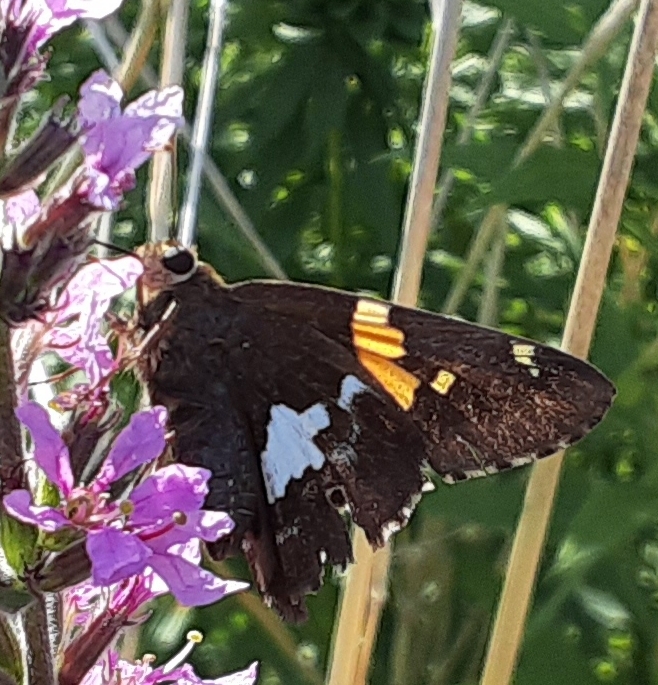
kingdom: Animalia
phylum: Arthropoda
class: Insecta
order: Lepidoptera
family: Hesperiidae
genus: Epargyreus
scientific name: Epargyreus clarus
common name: Silver-spotted skipper
